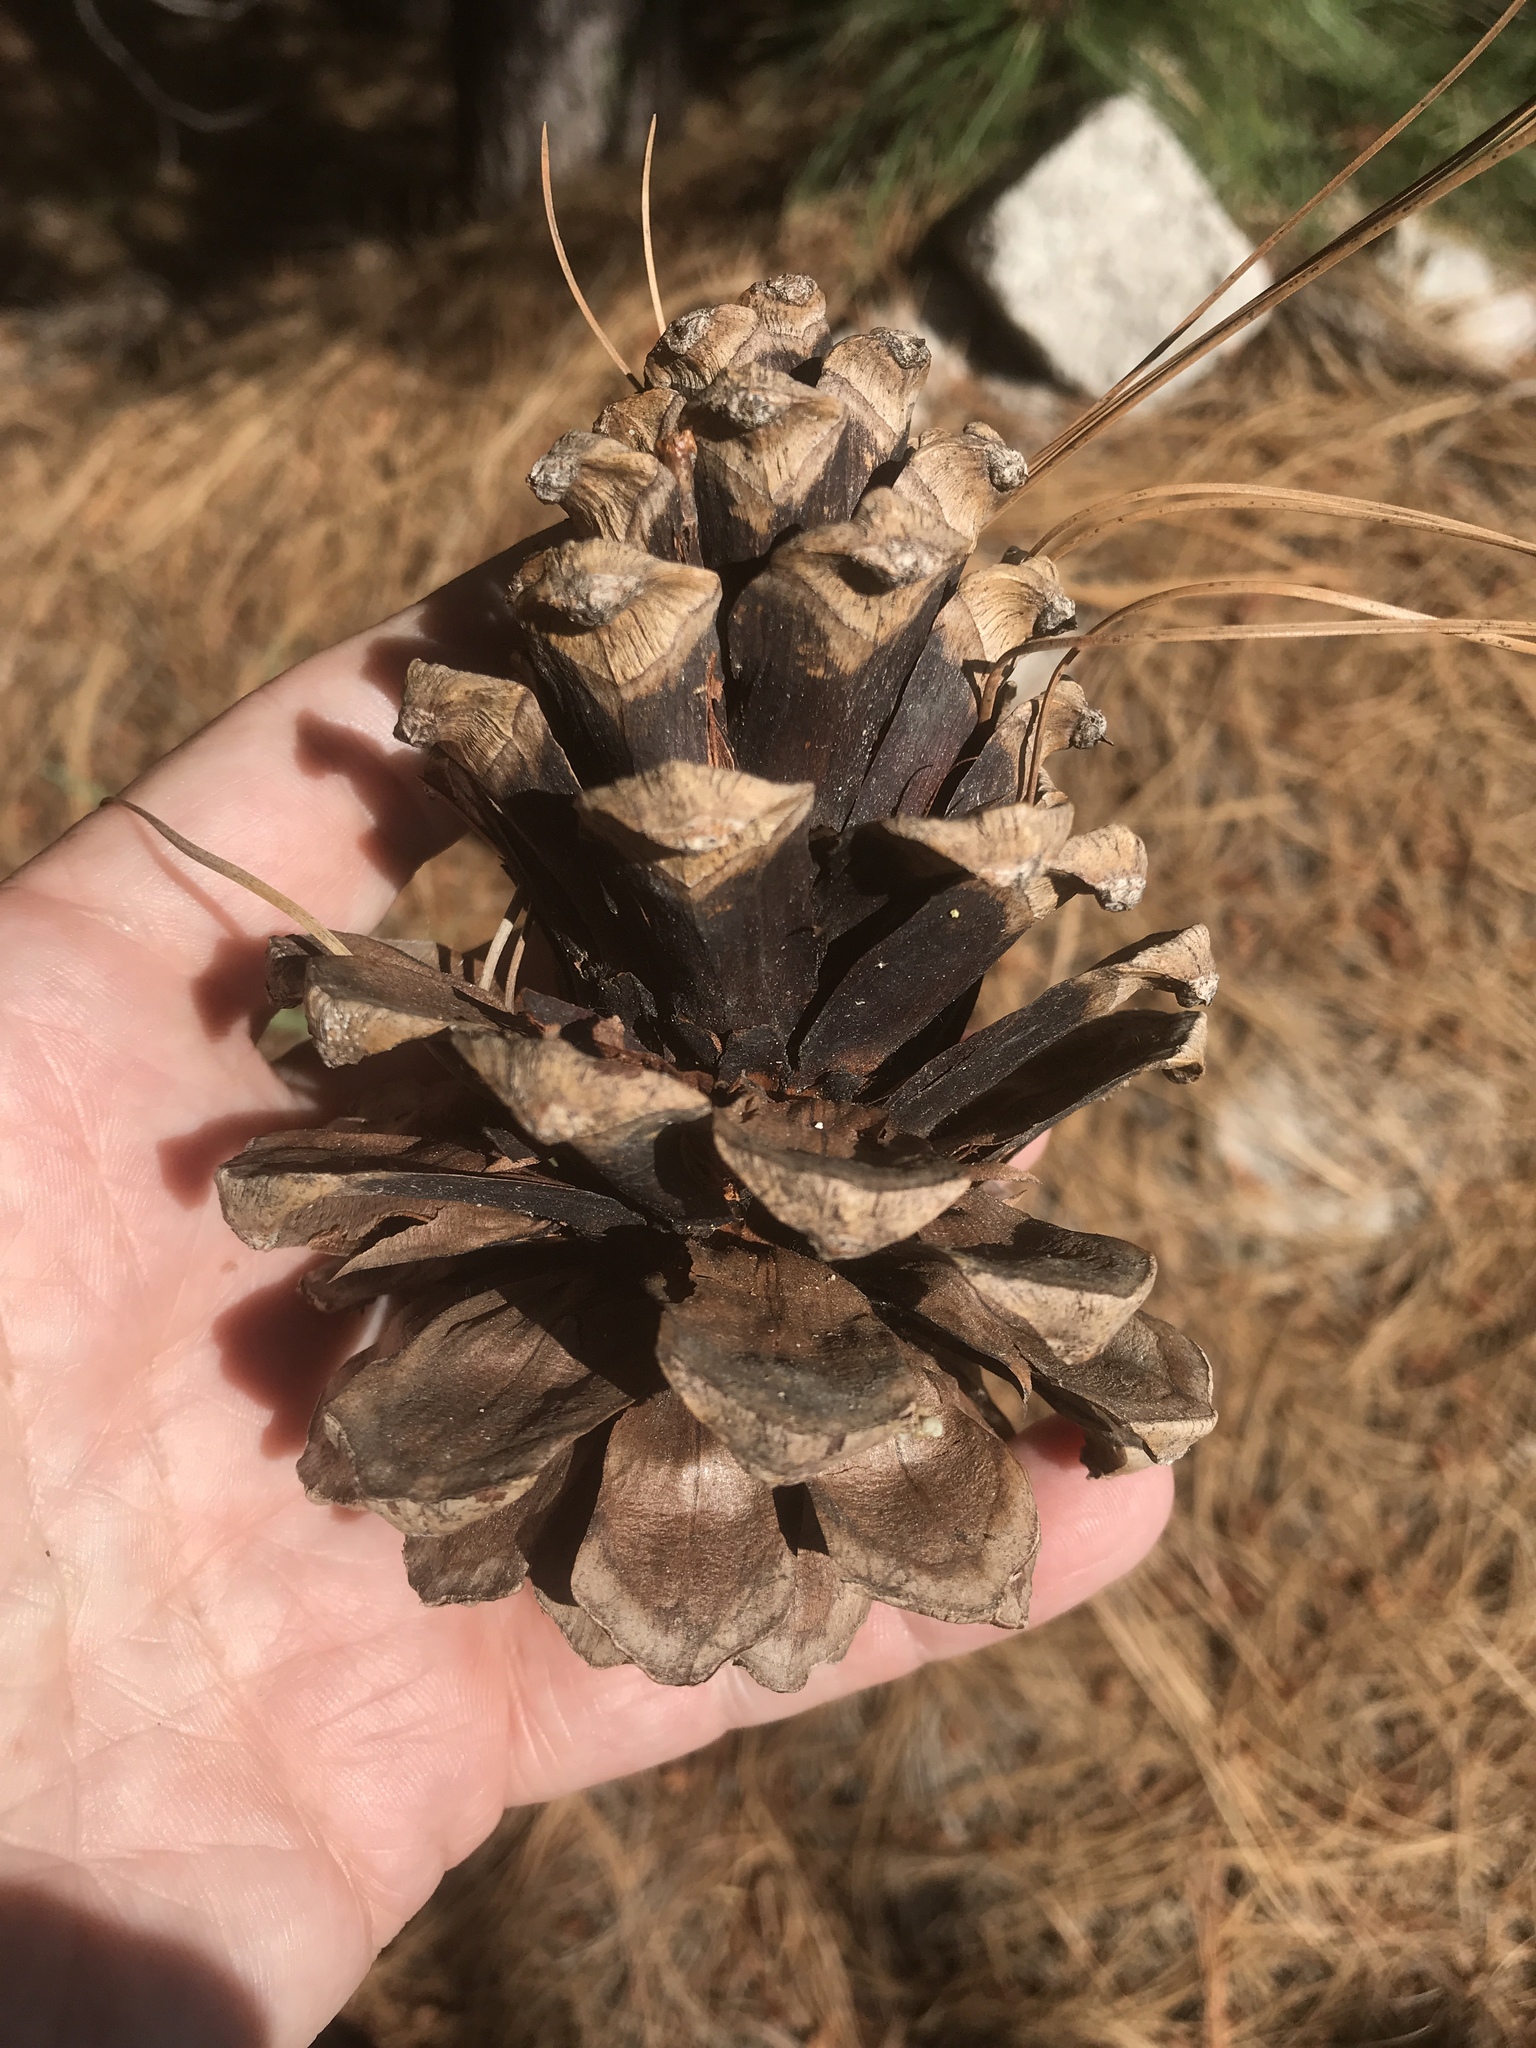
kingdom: Plantae
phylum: Tracheophyta
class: Pinopsida
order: Pinales
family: Pinaceae
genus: Pinus
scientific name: Pinus ponderosa
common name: Western yellow-pine
